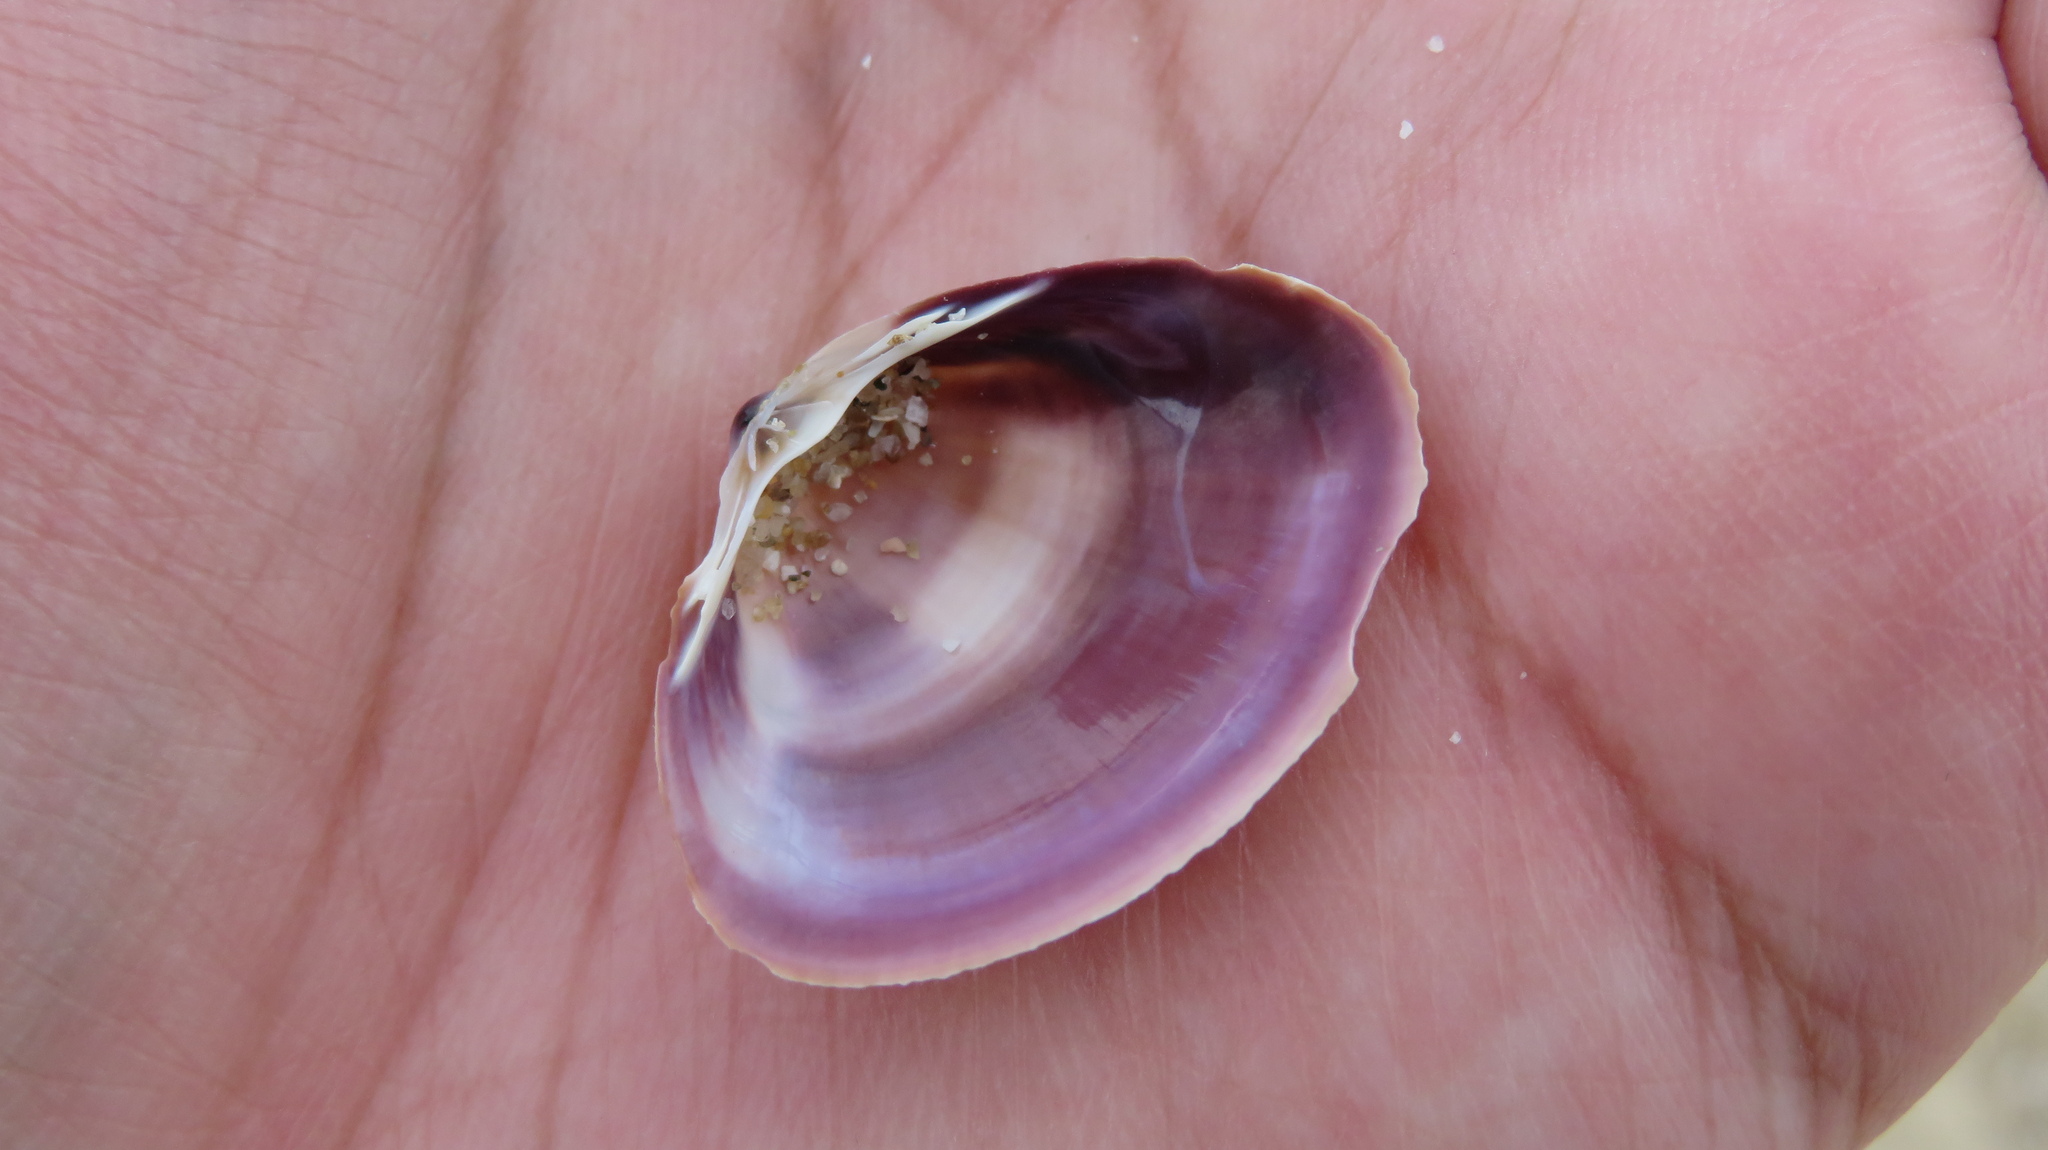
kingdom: Animalia
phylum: Mollusca
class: Bivalvia
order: Venerida
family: Mactridae
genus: Mactra
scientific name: Mactra chinensis
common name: Chinese surf clam
